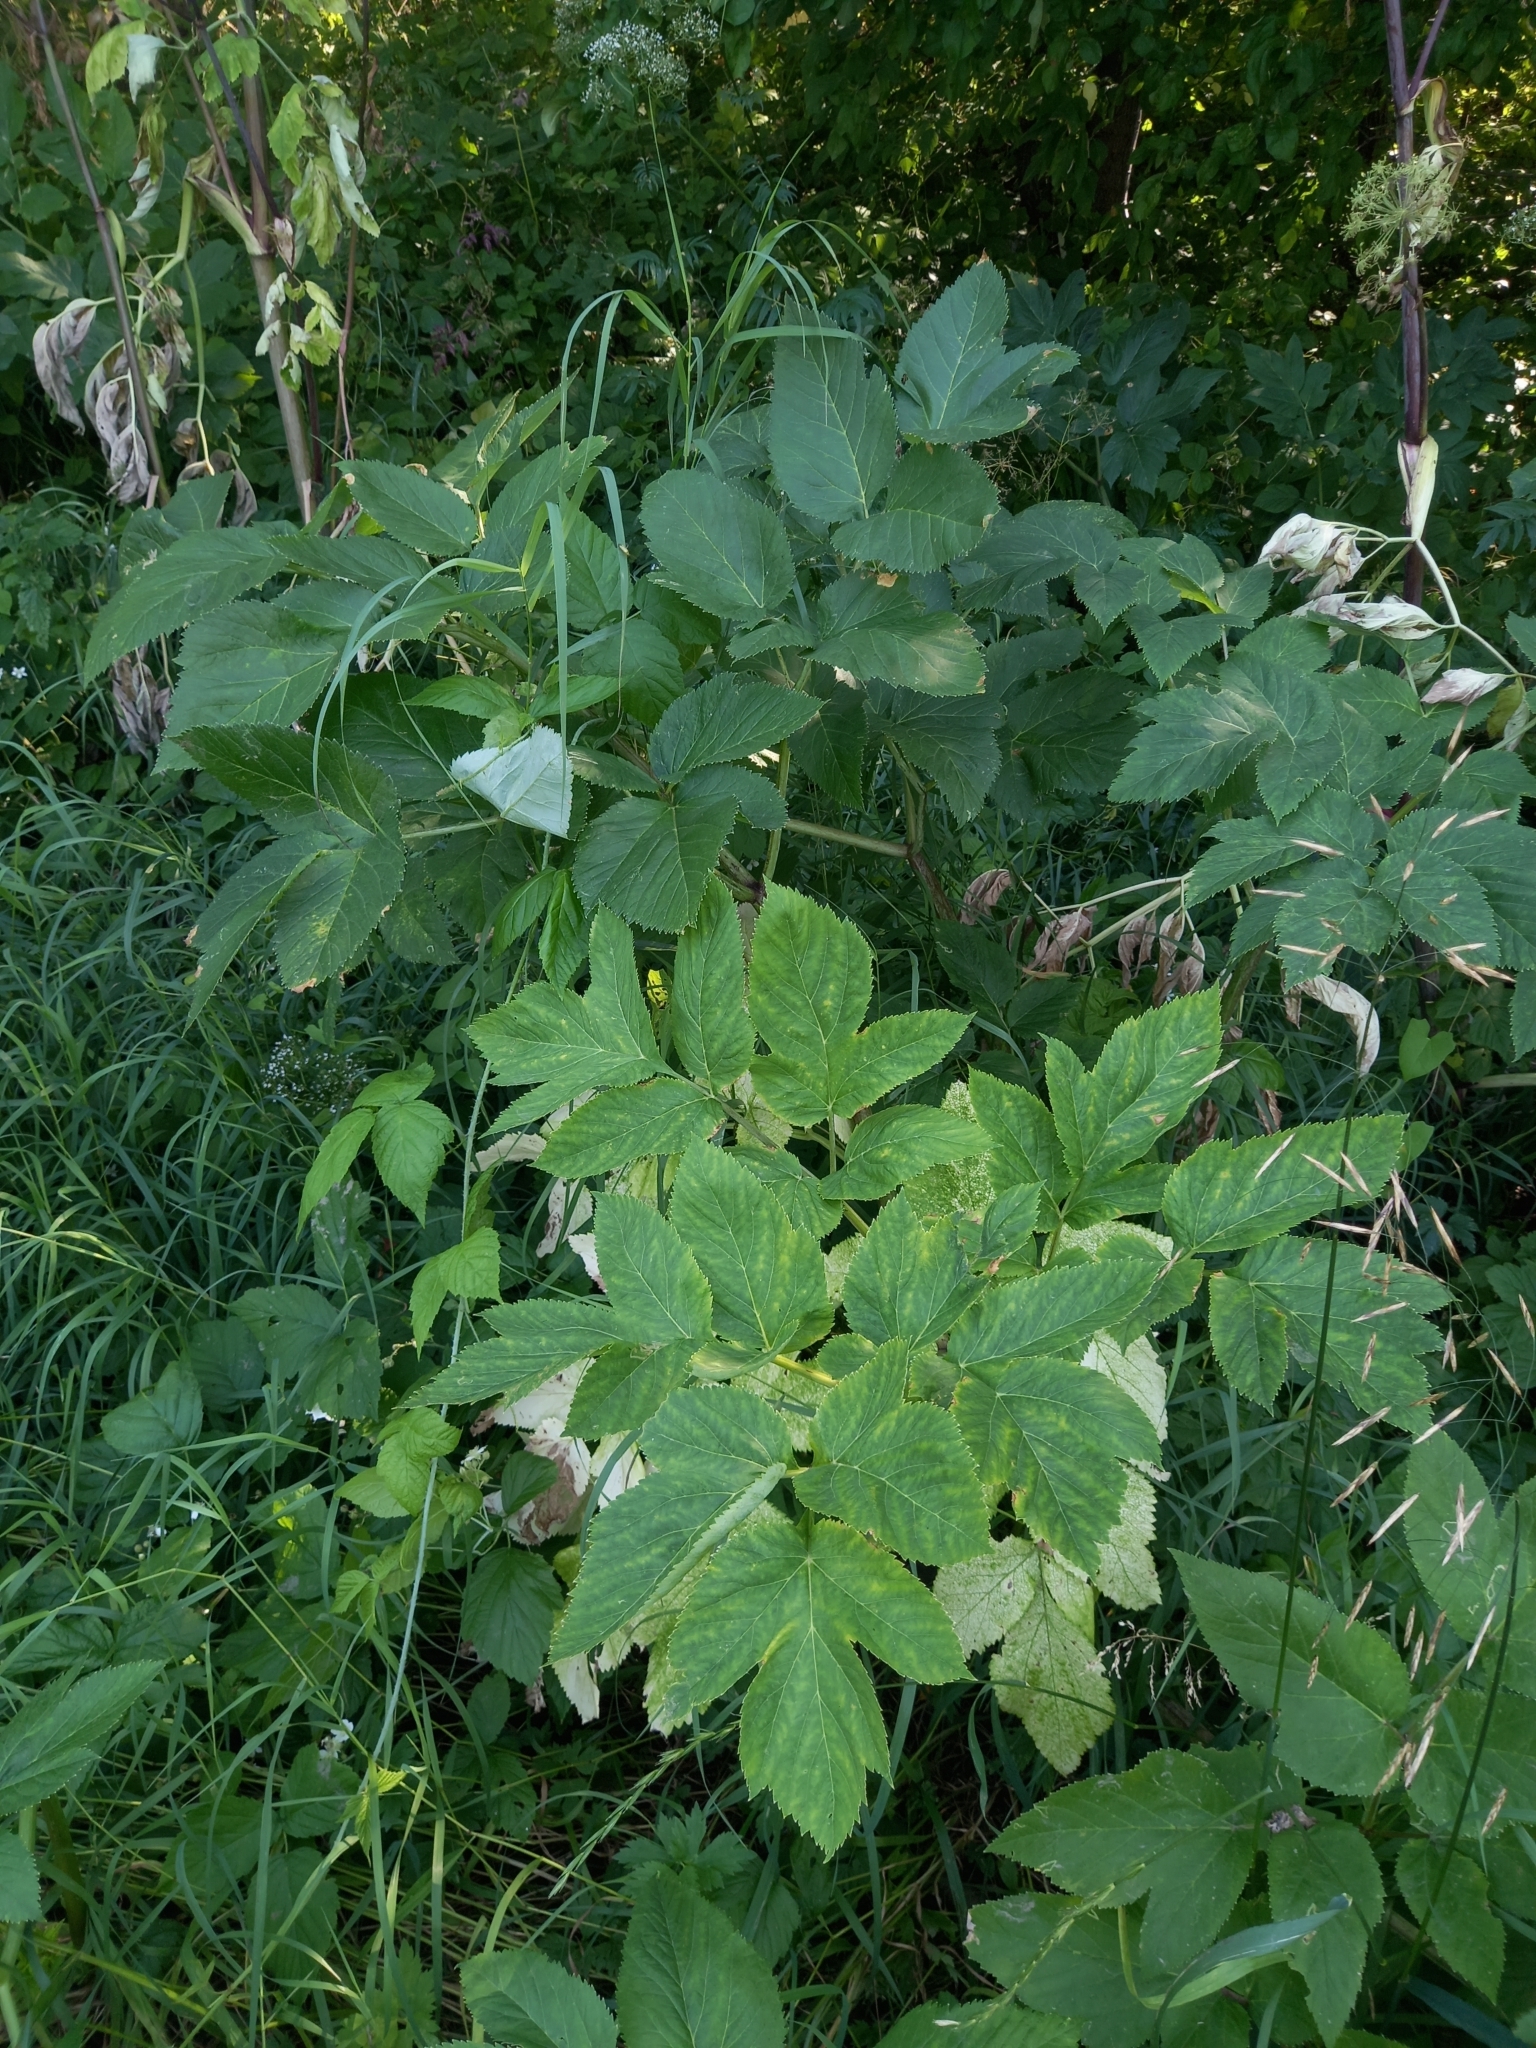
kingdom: Plantae
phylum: Tracheophyta
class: Magnoliopsida
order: Apiales
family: Apiaceae
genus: Angelica
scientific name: Angelica archangelica
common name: Garden angelica
